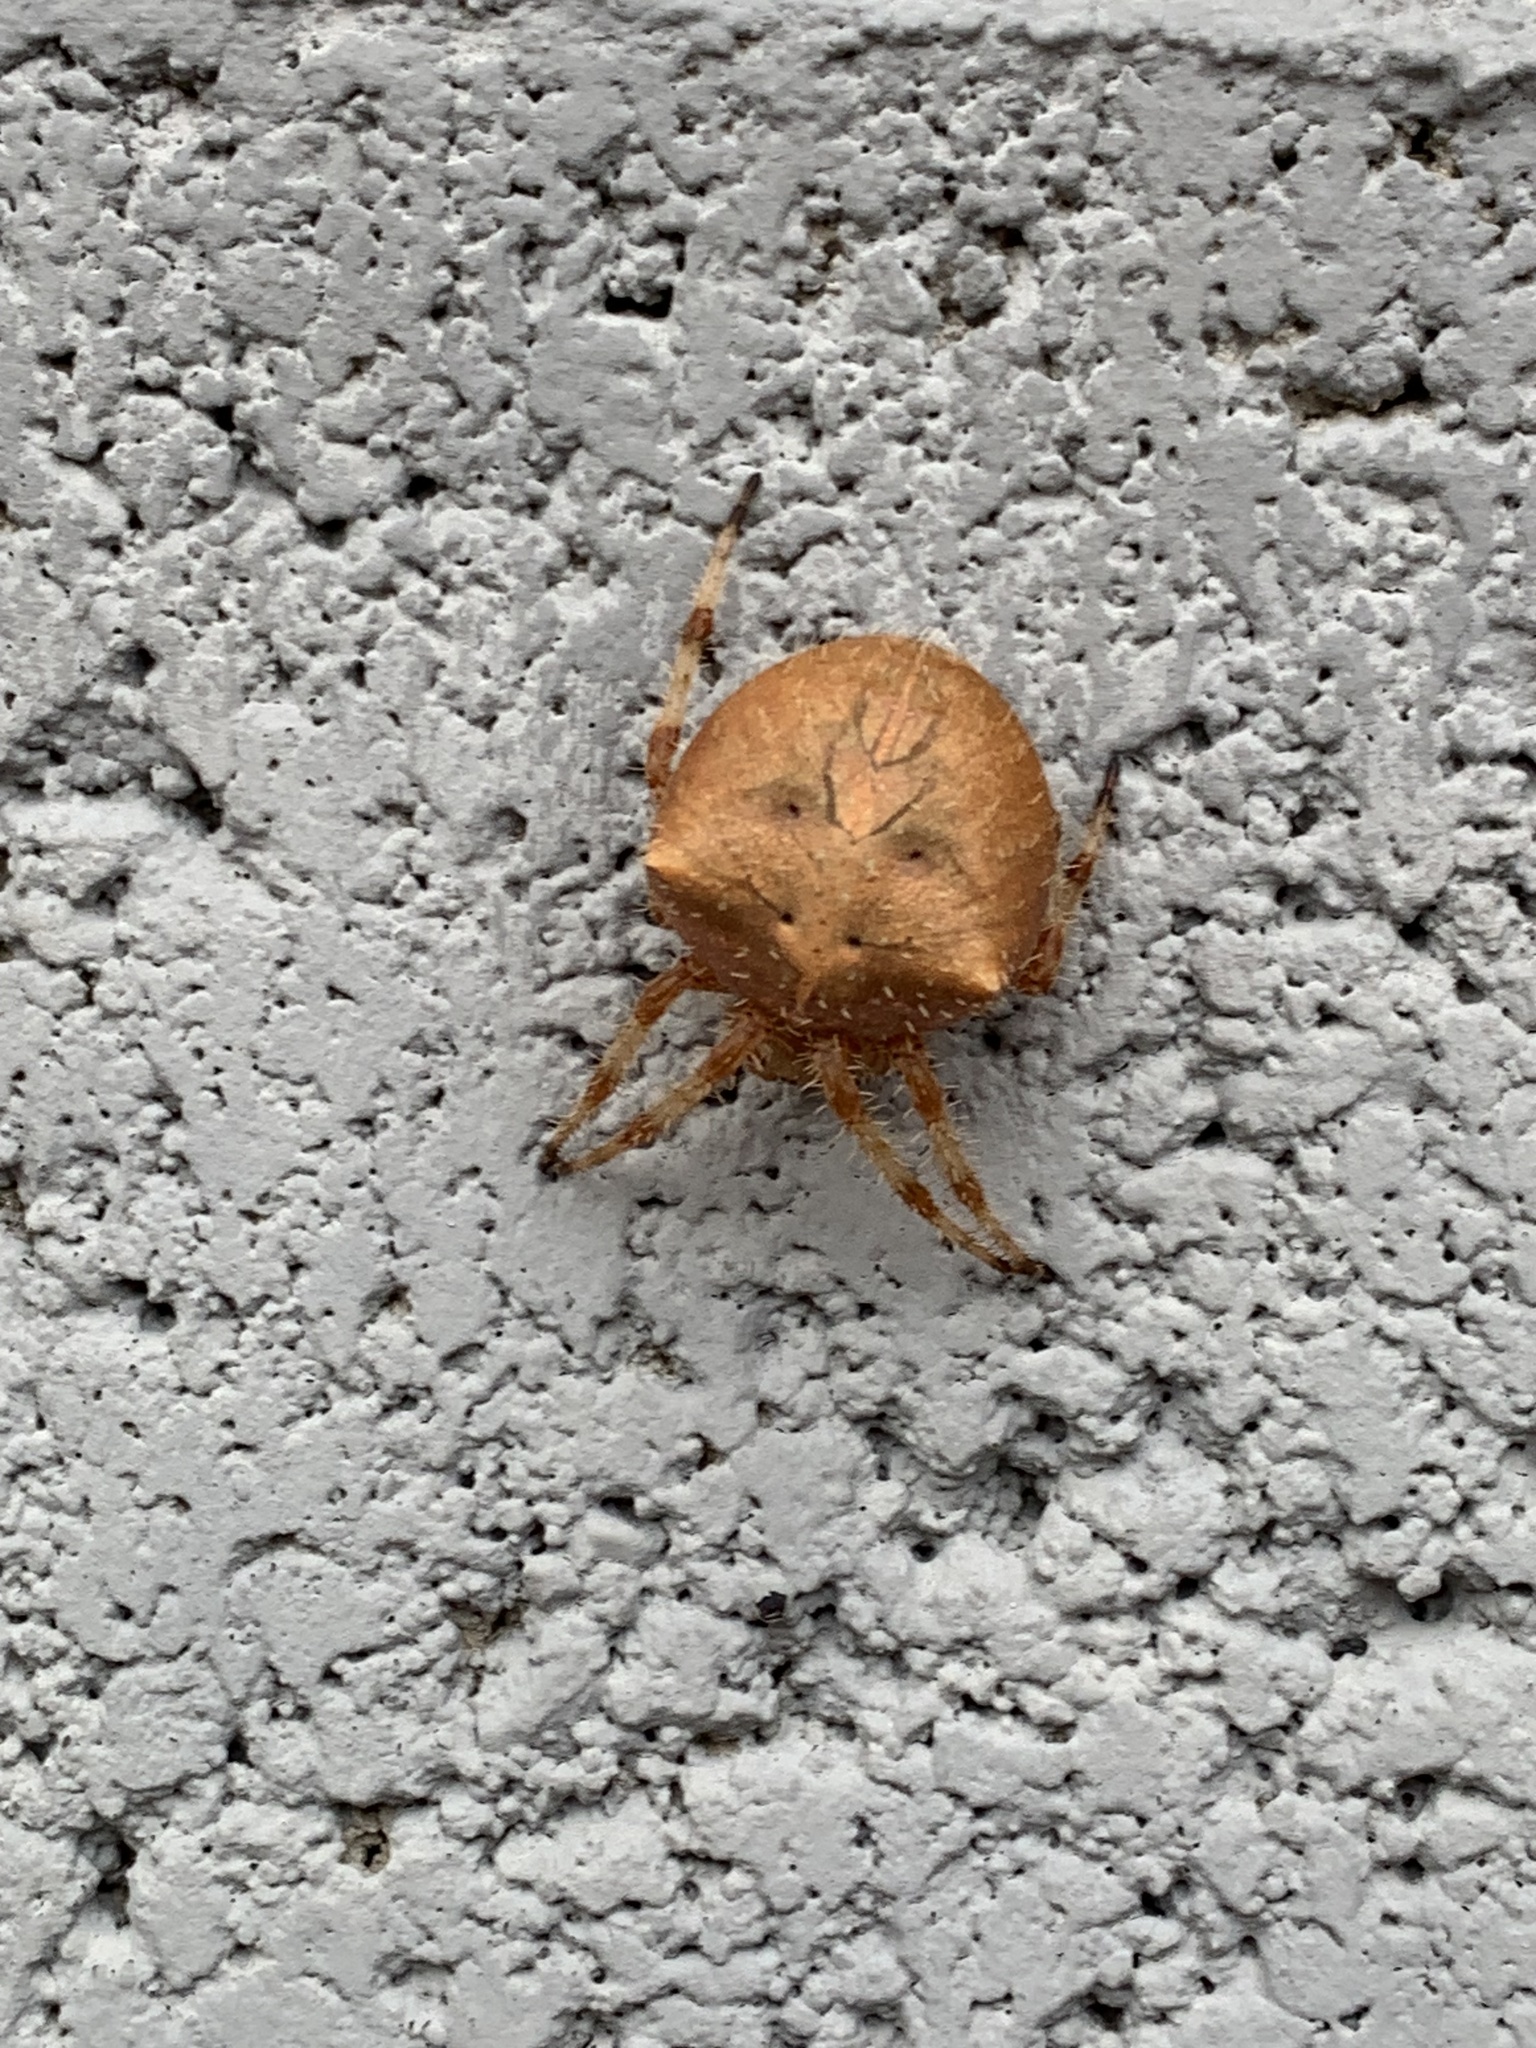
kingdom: Animalia
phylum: Arthropoda
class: Arachnida
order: Araneae
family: Araneidae
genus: Araneus
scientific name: Araneus gemmoides
